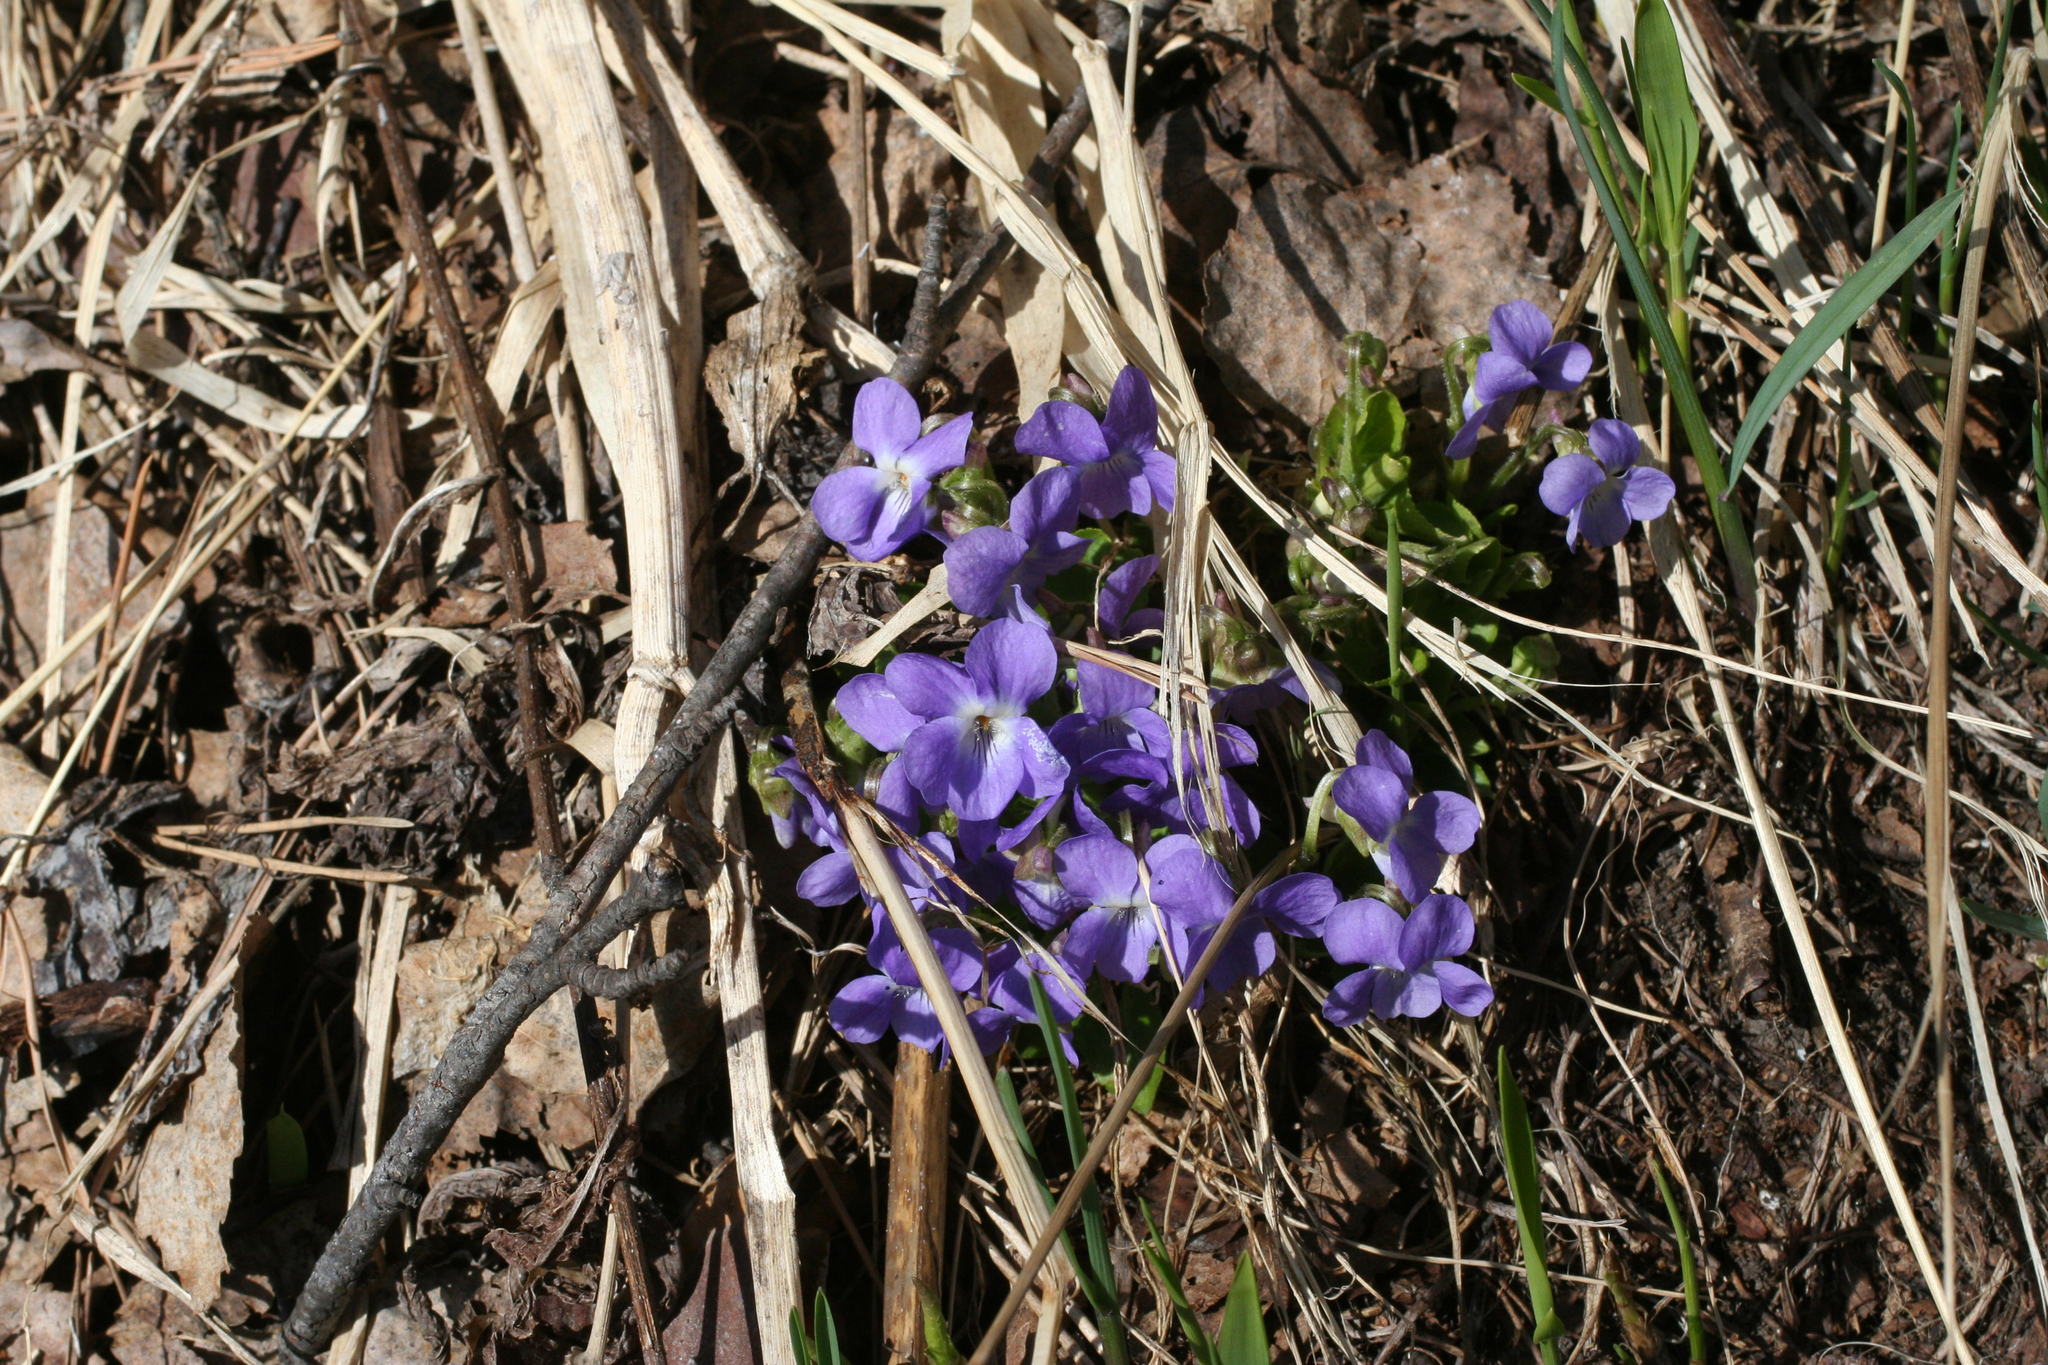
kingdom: Plantae
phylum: Tracheophyta
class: Magnoliopsida
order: Malpighiales
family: Violaceae
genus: Viola
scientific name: Viola hirta
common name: Hairy violet
